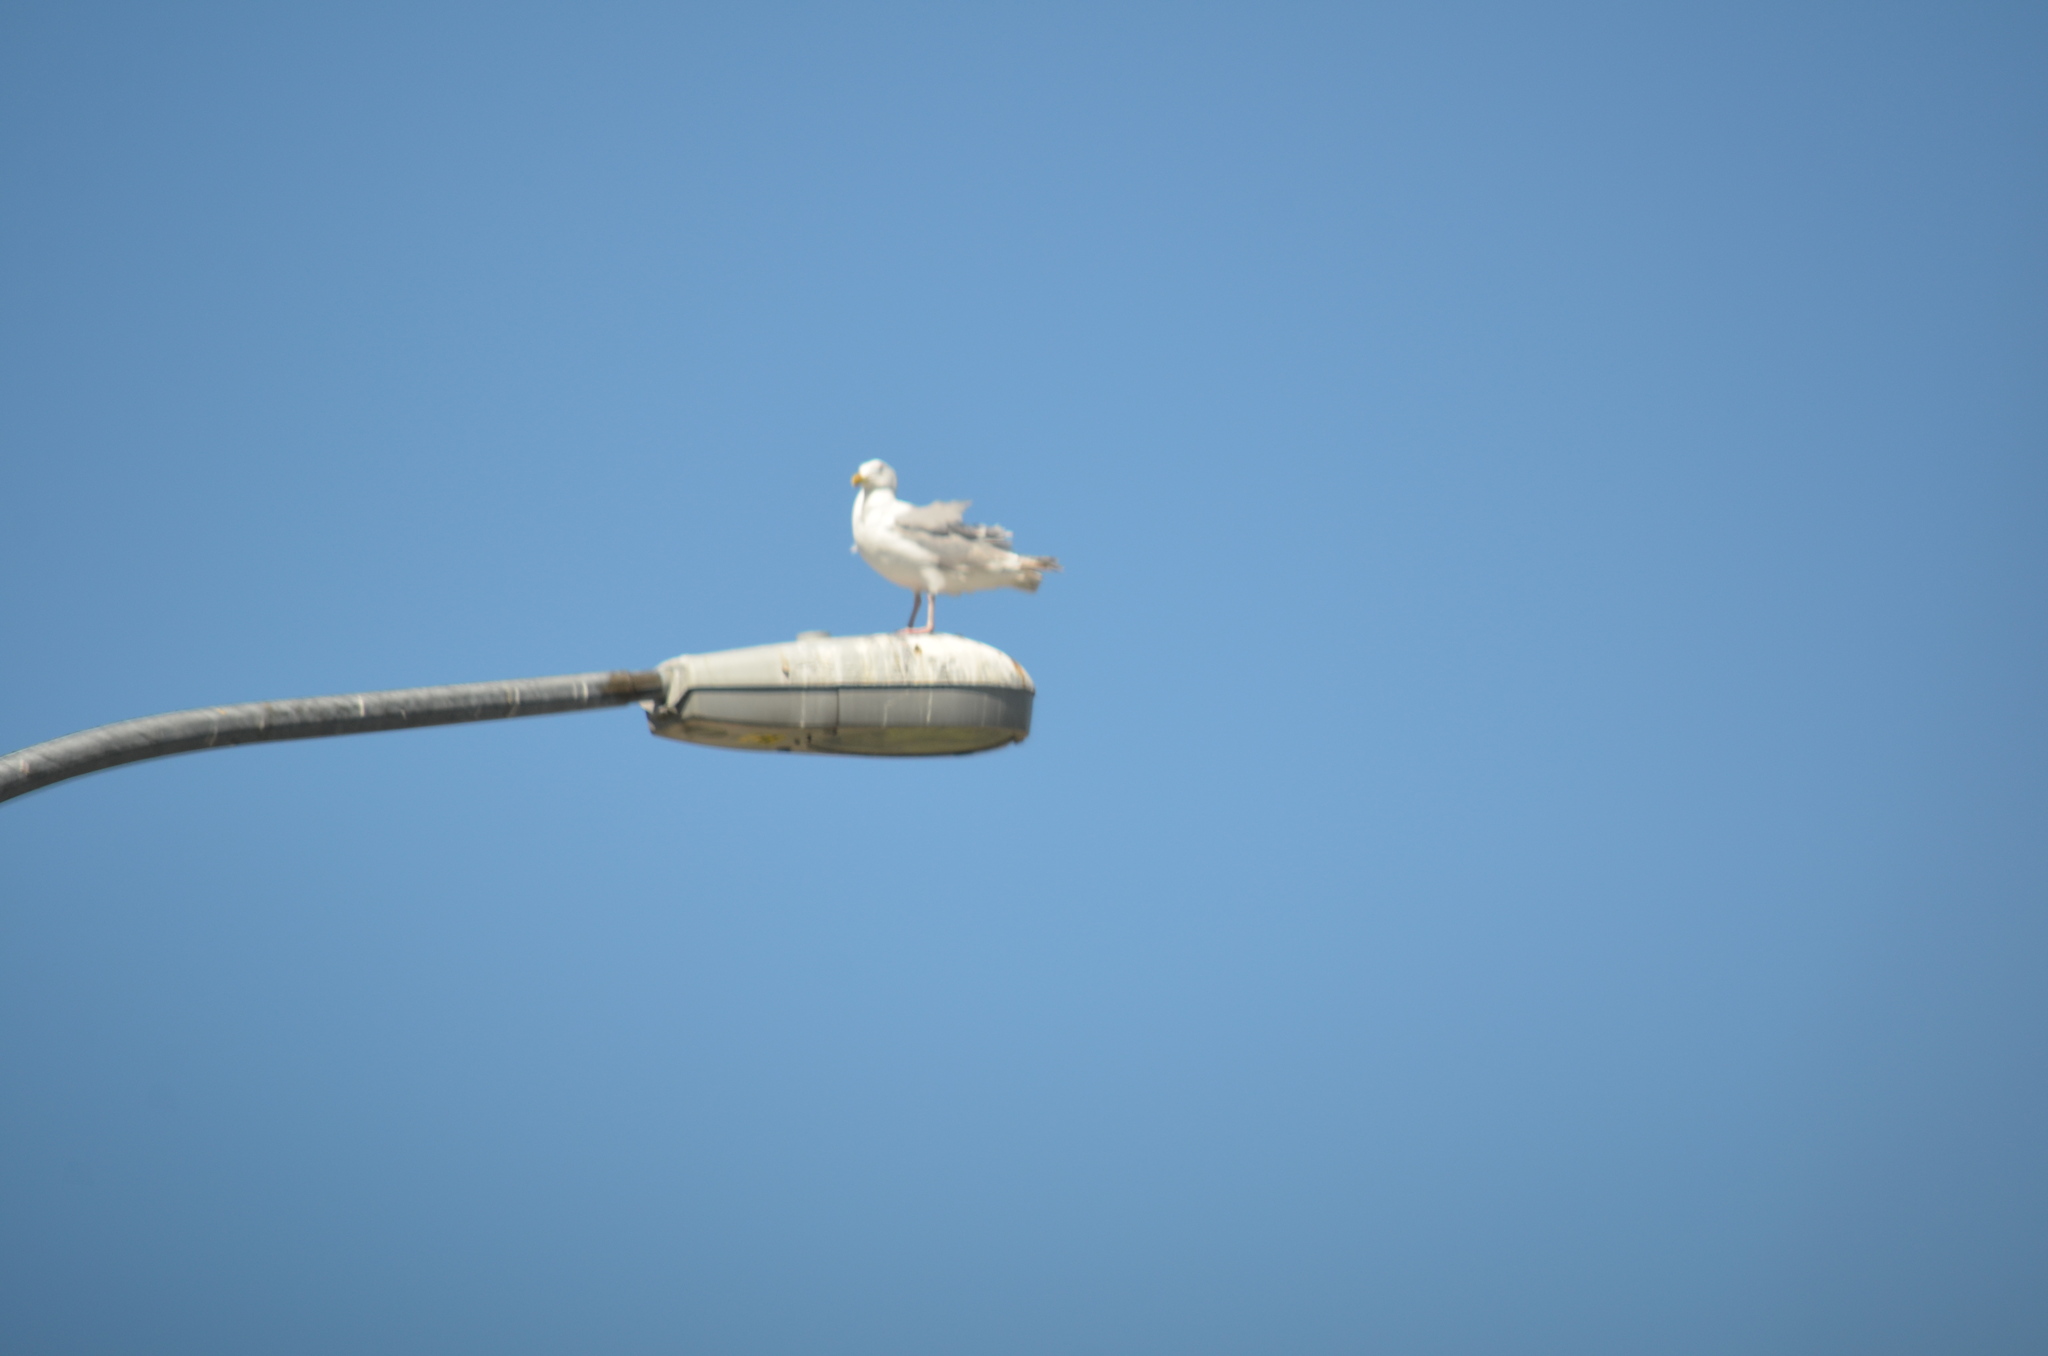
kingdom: Animalia
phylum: Chordata
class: Aves
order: Charadriiformes
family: Laridae
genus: Larus
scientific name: Larus glaucescens
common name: Glaucous-winged gull
